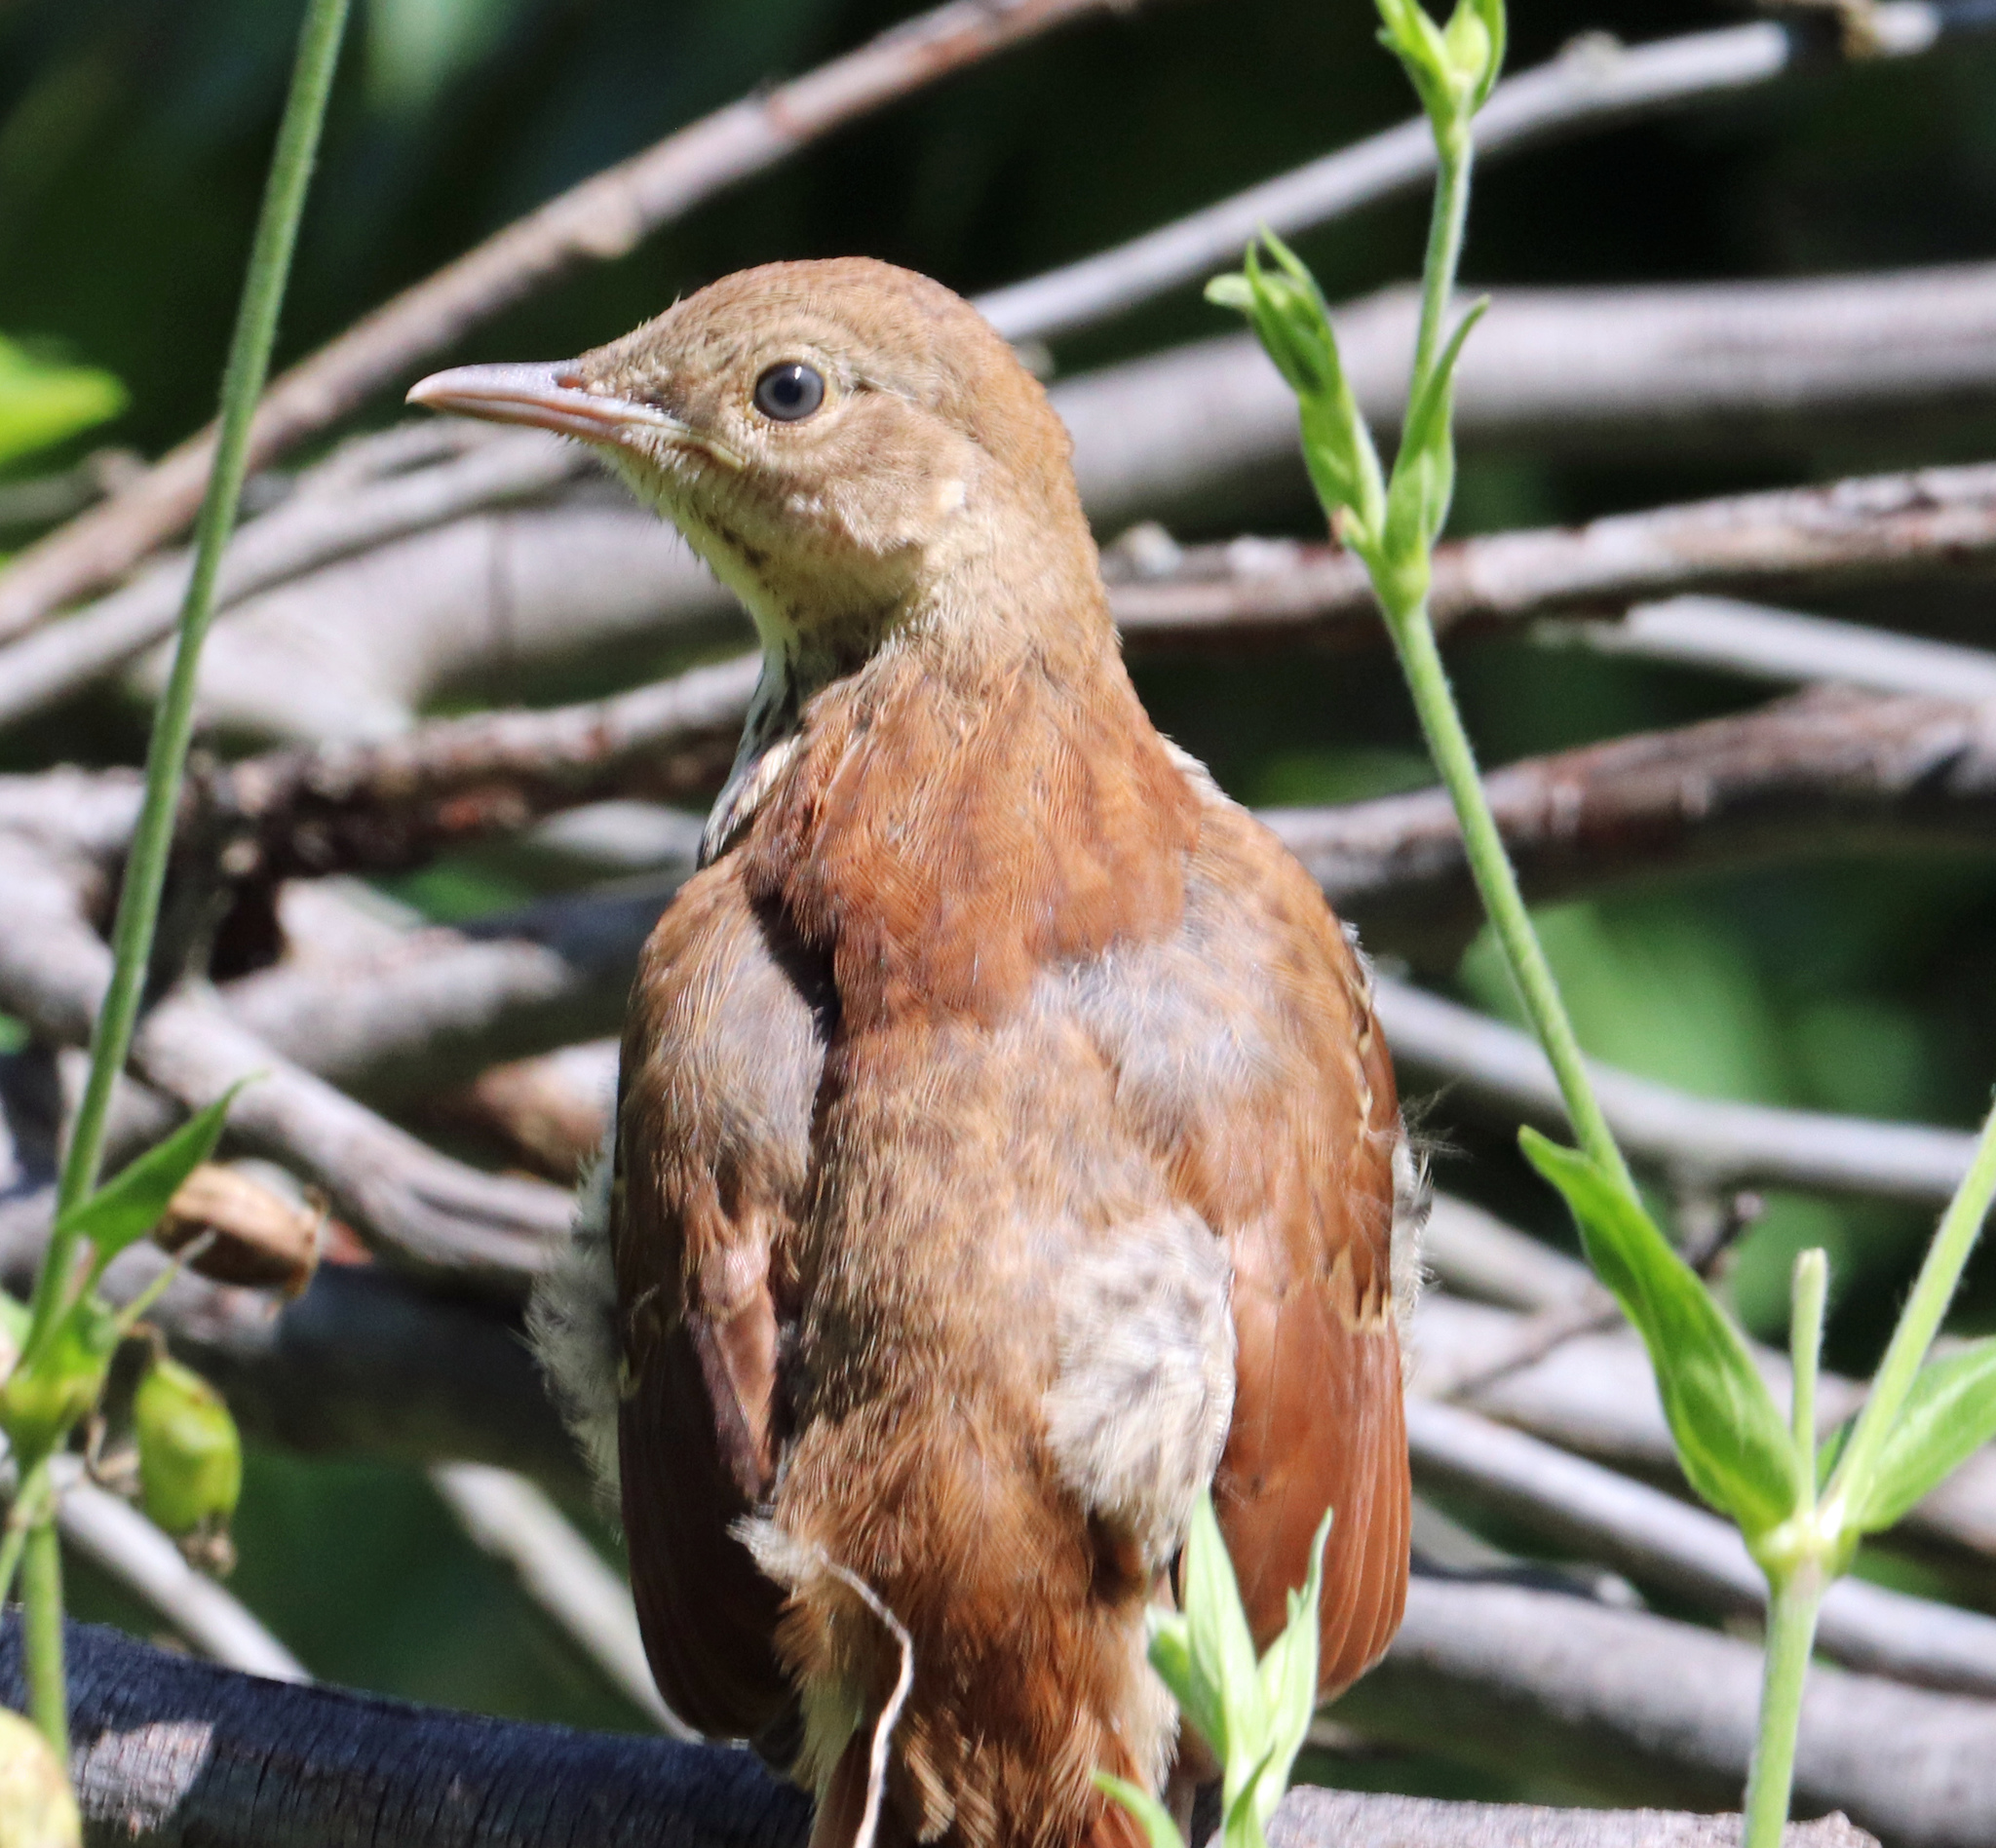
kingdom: Animalia
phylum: Chordata
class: Aves
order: Passeriformes
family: Mimidae
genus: Toxostoma
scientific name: Toxostoma rufum
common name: Brown thrasher
